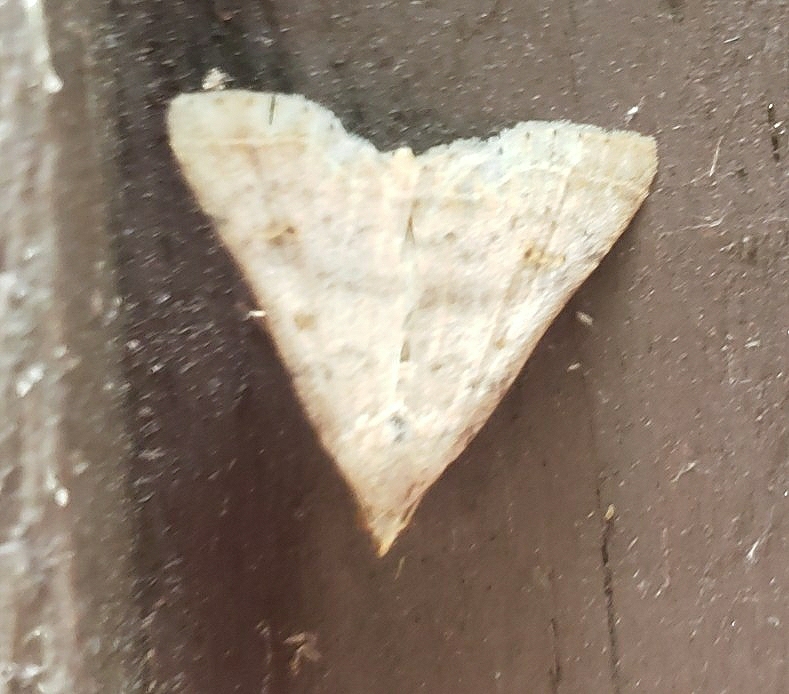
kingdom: Animalia
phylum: Arthropoda
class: Insecta
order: Lepidoptera
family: Erebidae
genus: Bleptina
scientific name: Bleptina caradrinalis
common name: Bent-winged owlet
